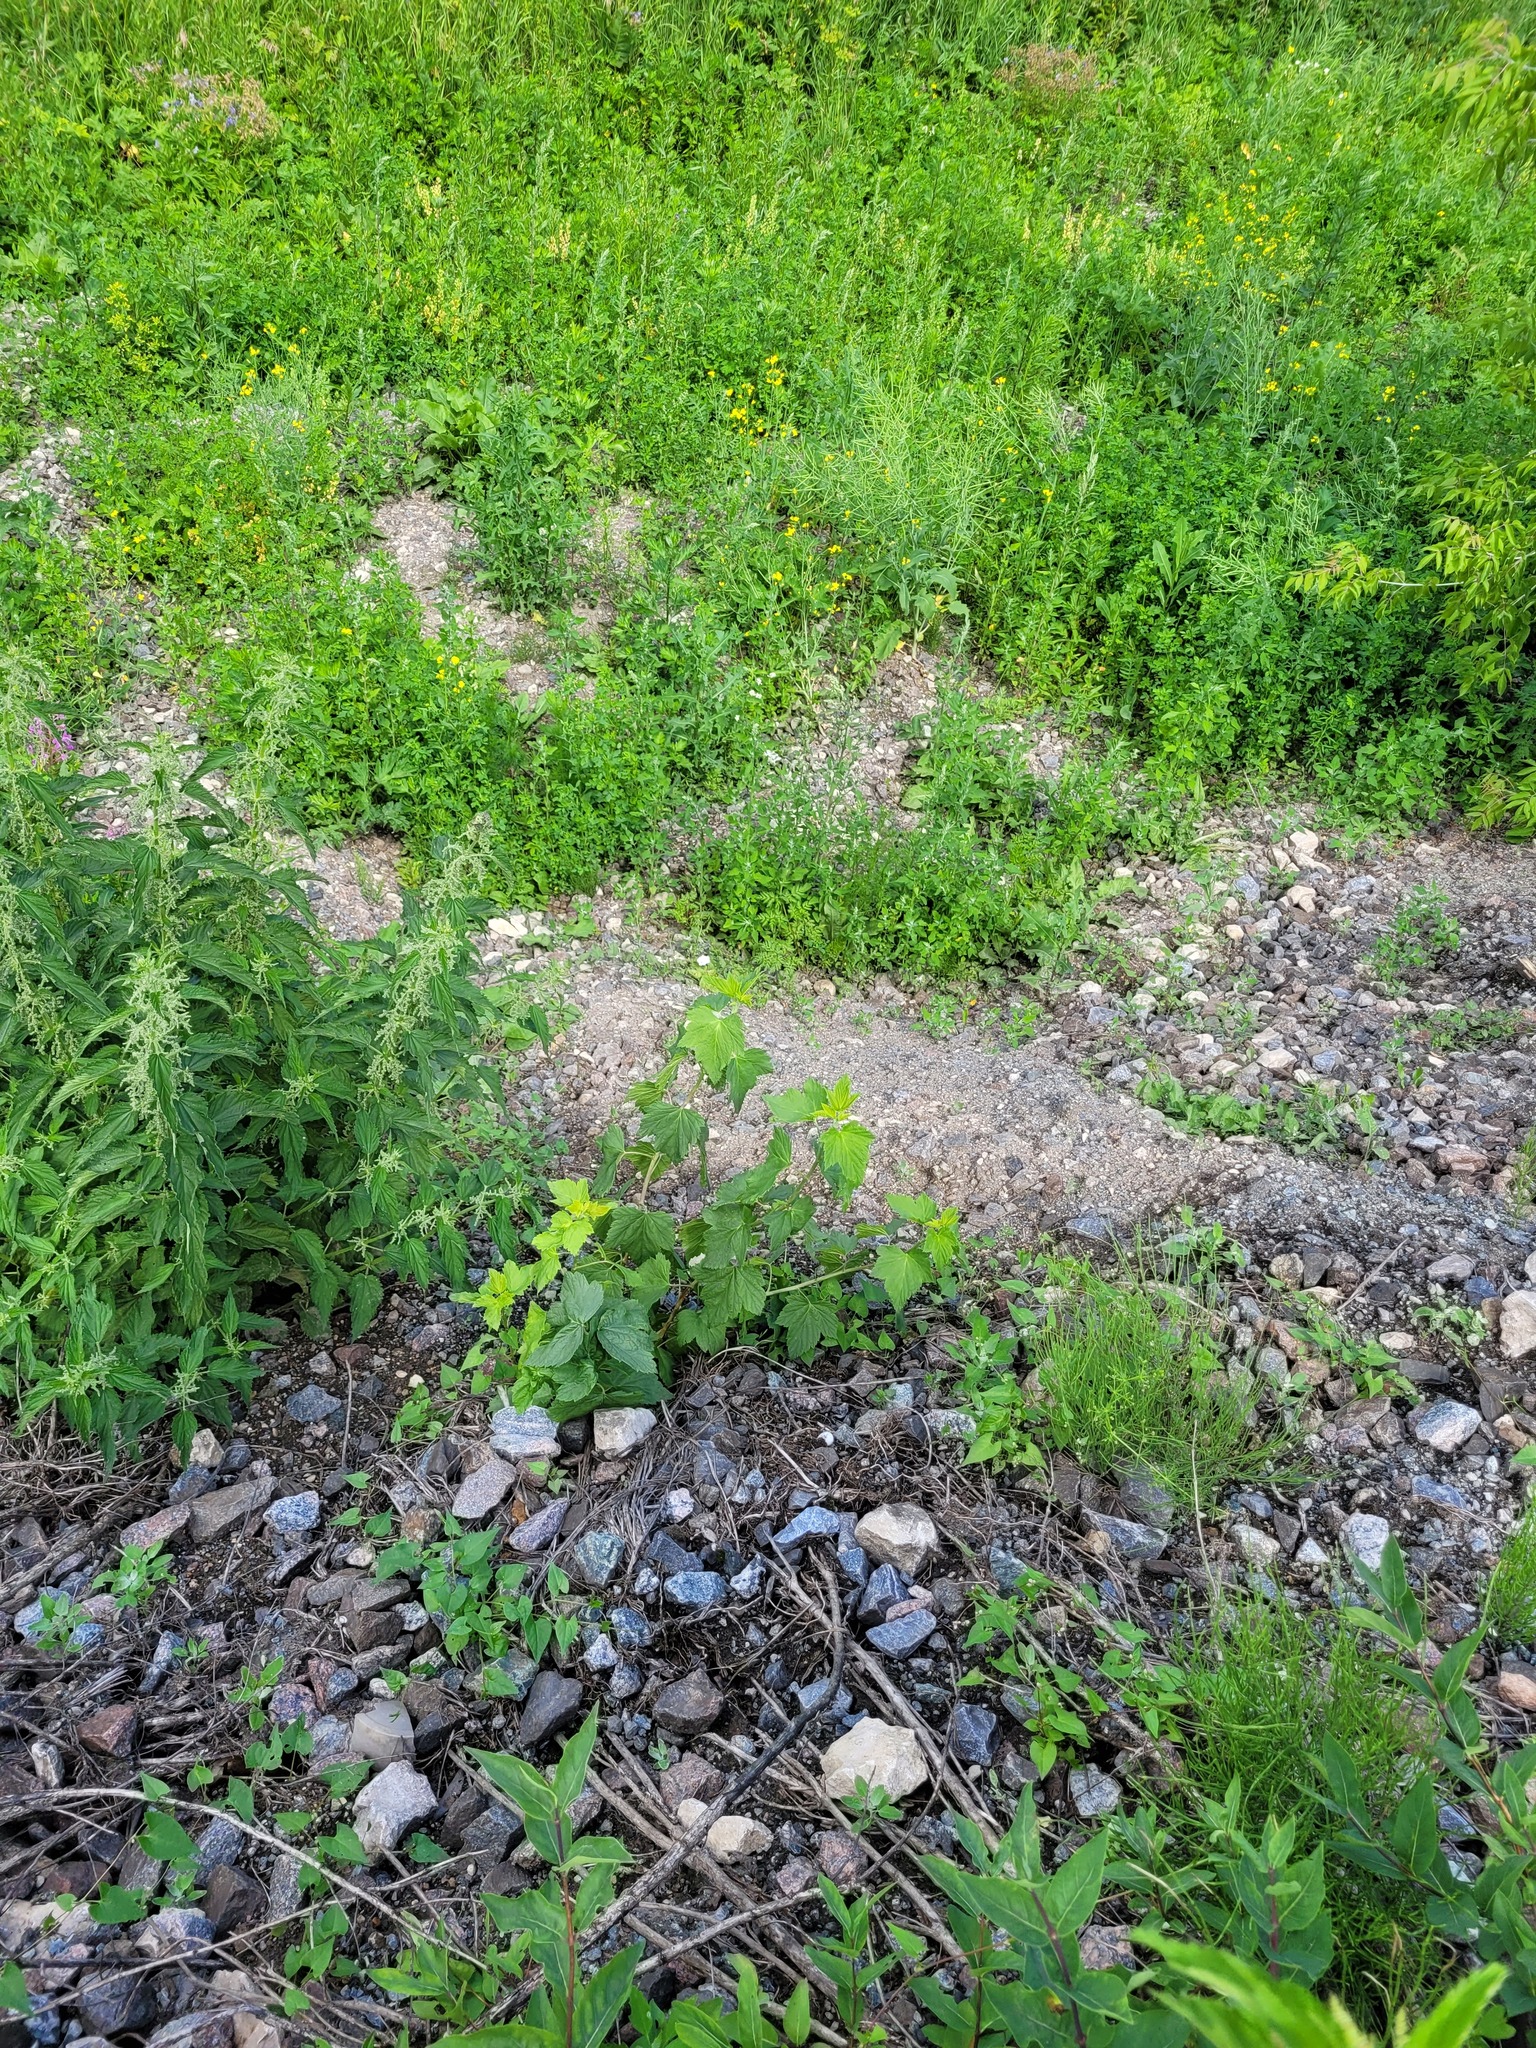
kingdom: Plantae
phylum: Tracheophyta
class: Magnoliopsida
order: Saxifragales
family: Grossulariaceae
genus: Ribes
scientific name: Ribes nigrum
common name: Black currant
